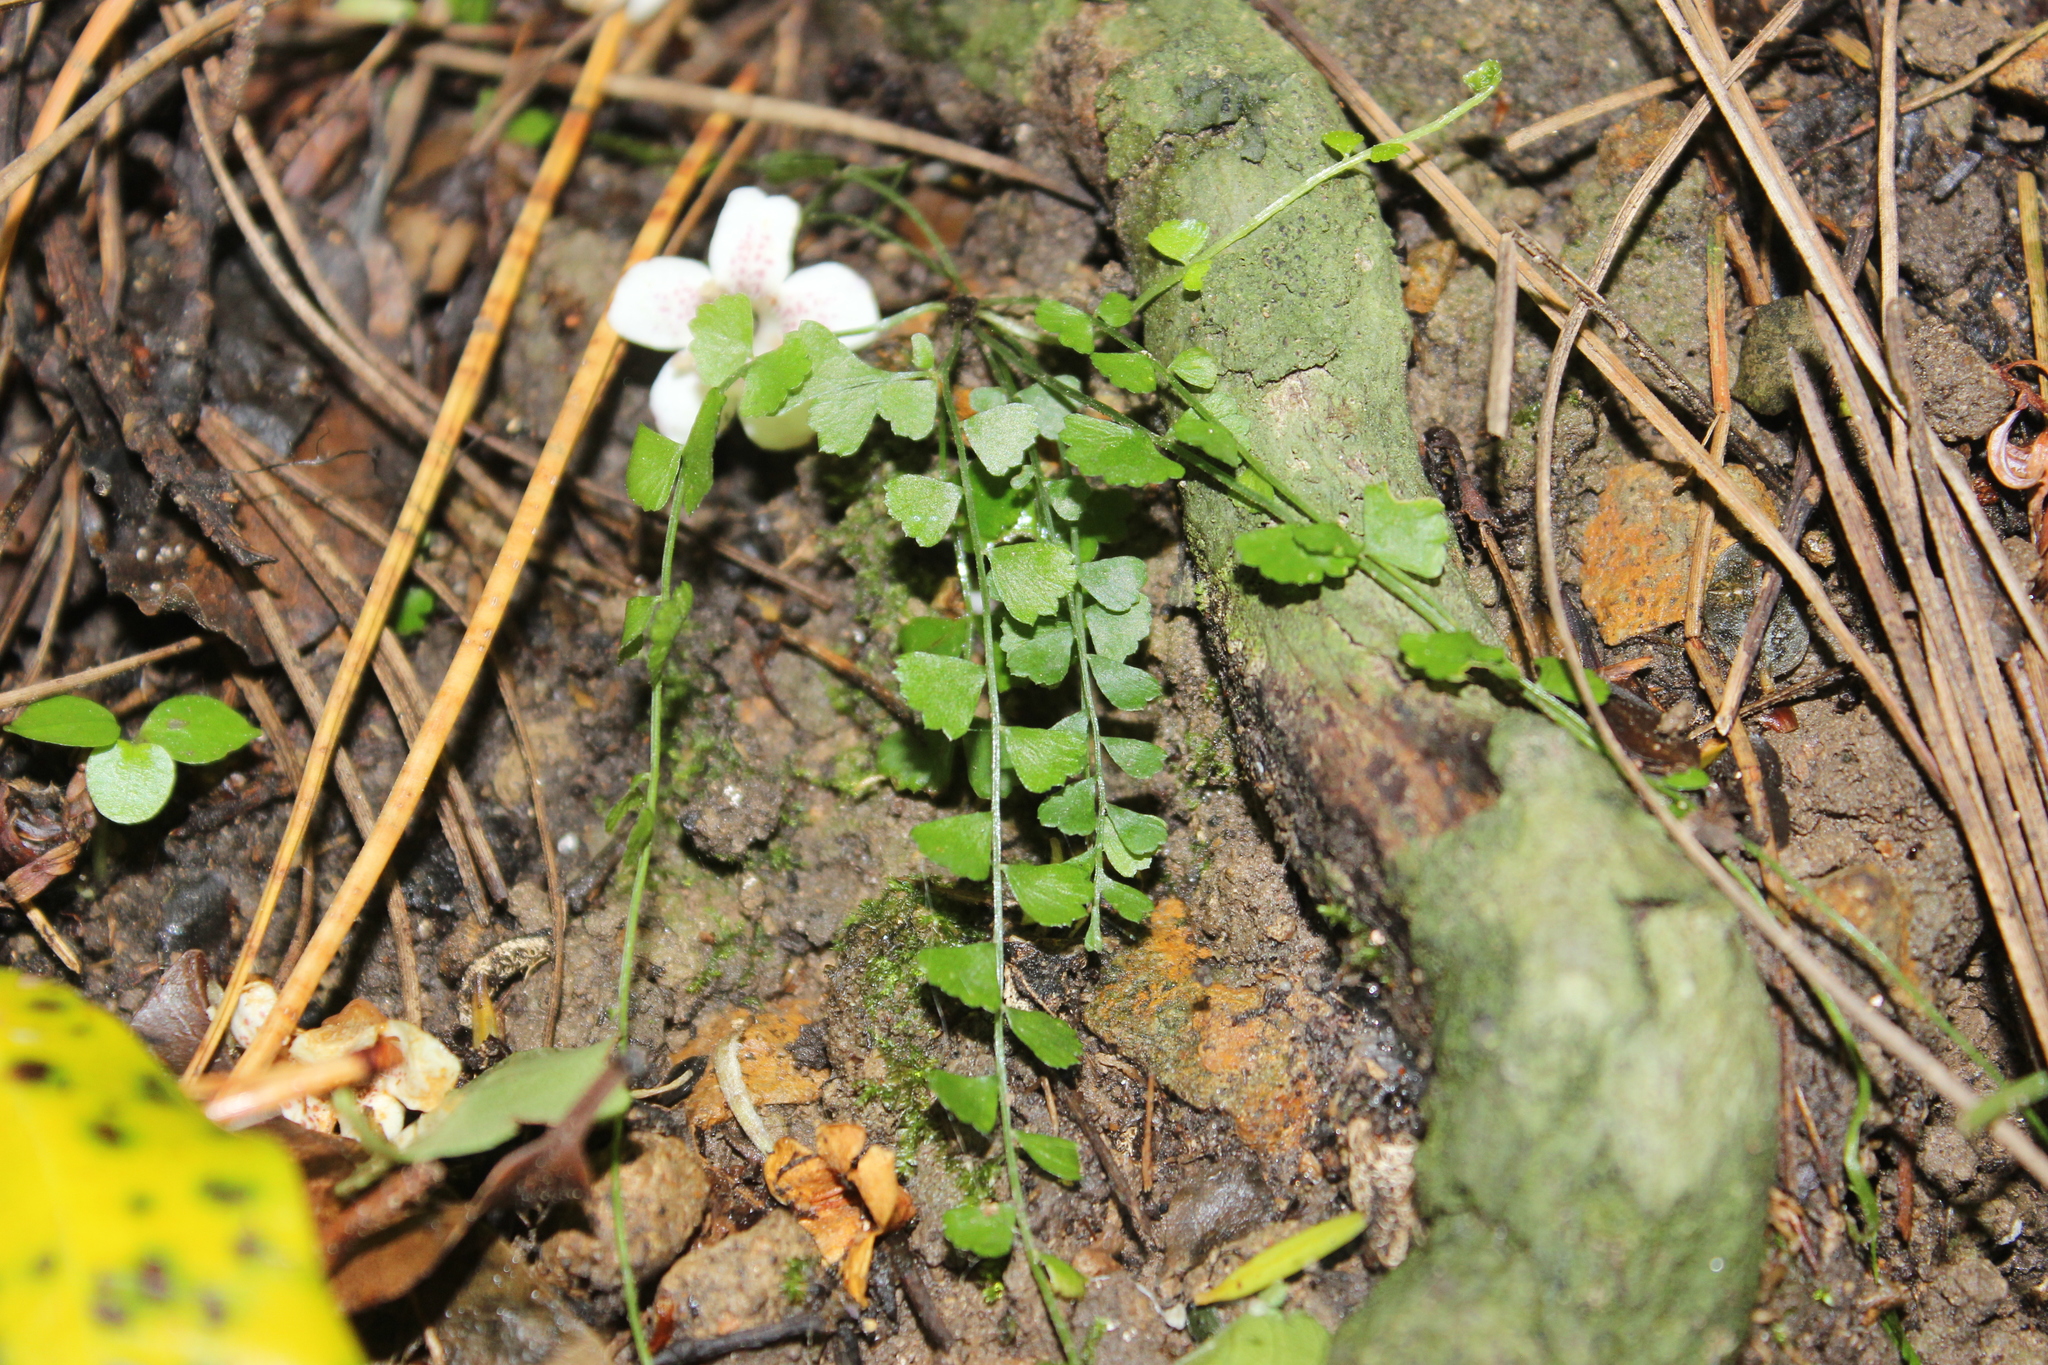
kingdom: Plantae
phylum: Tracheophyta
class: Polypodiopsida
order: Polypodiales
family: Aspleniaceae
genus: Asplenium
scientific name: Asplenium flabellifolium
